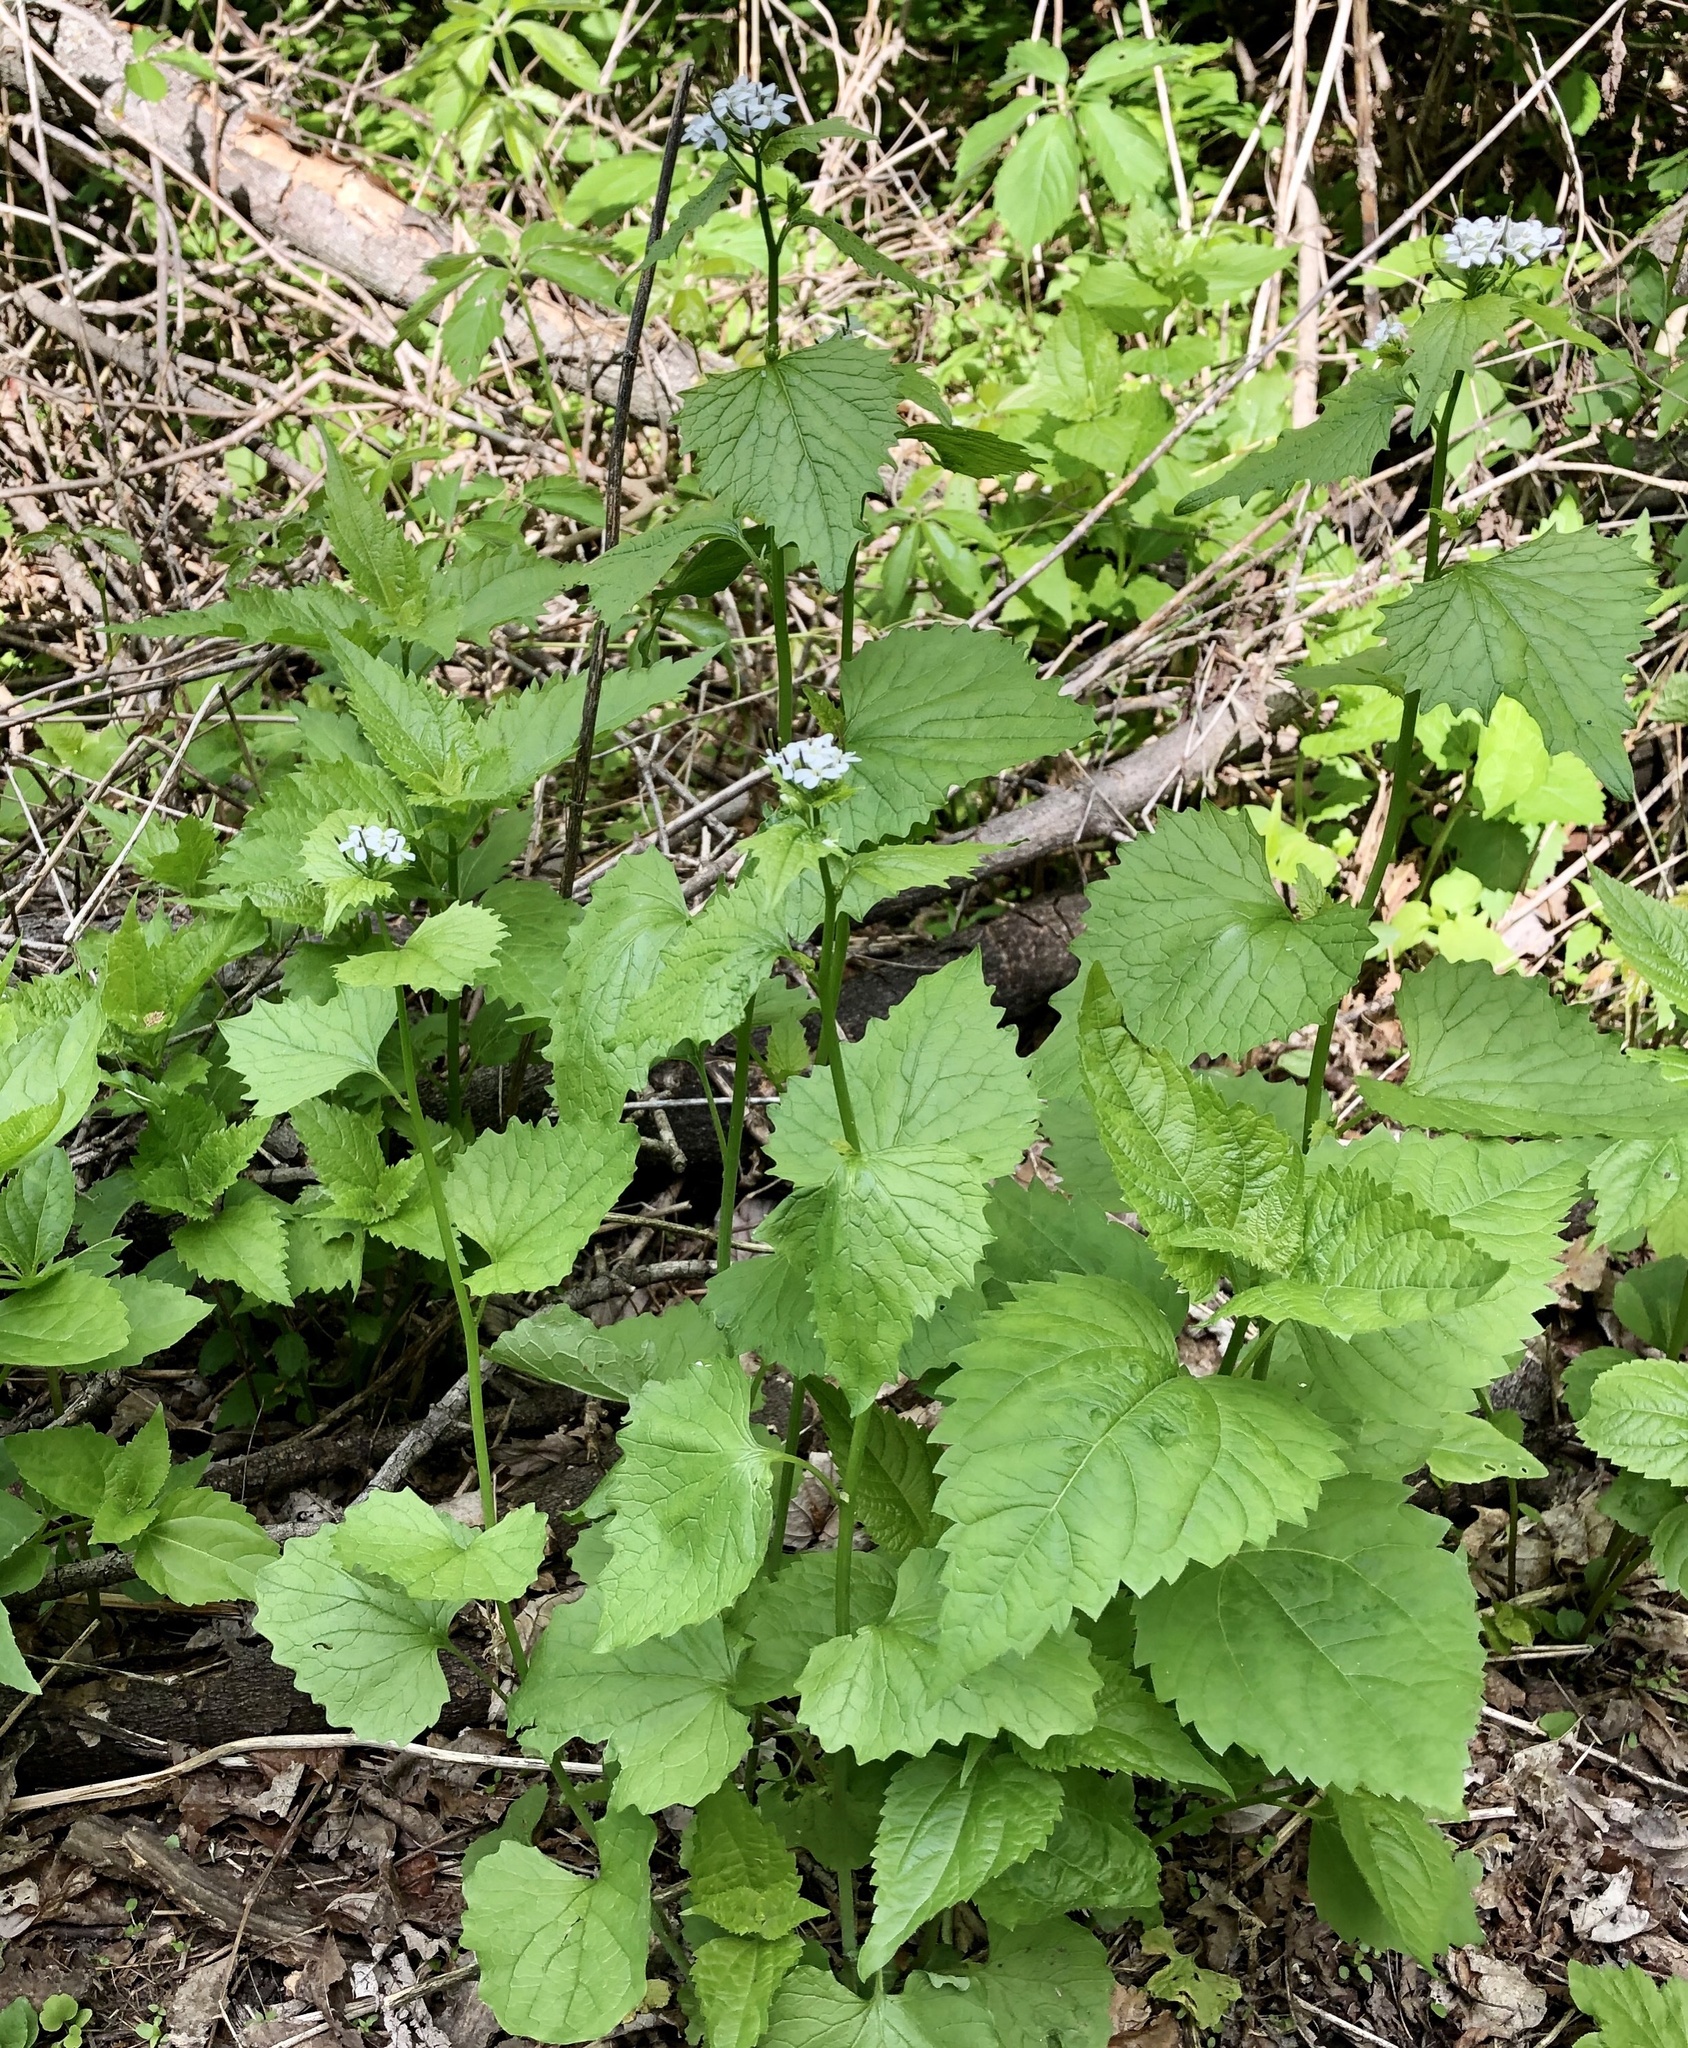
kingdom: Plantae
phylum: Tracheophyta
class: Magnoliopsida
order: Brassicales
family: Brassicaceae
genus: Alliaria
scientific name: Alliaria petiolata
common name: Garlic mustard
